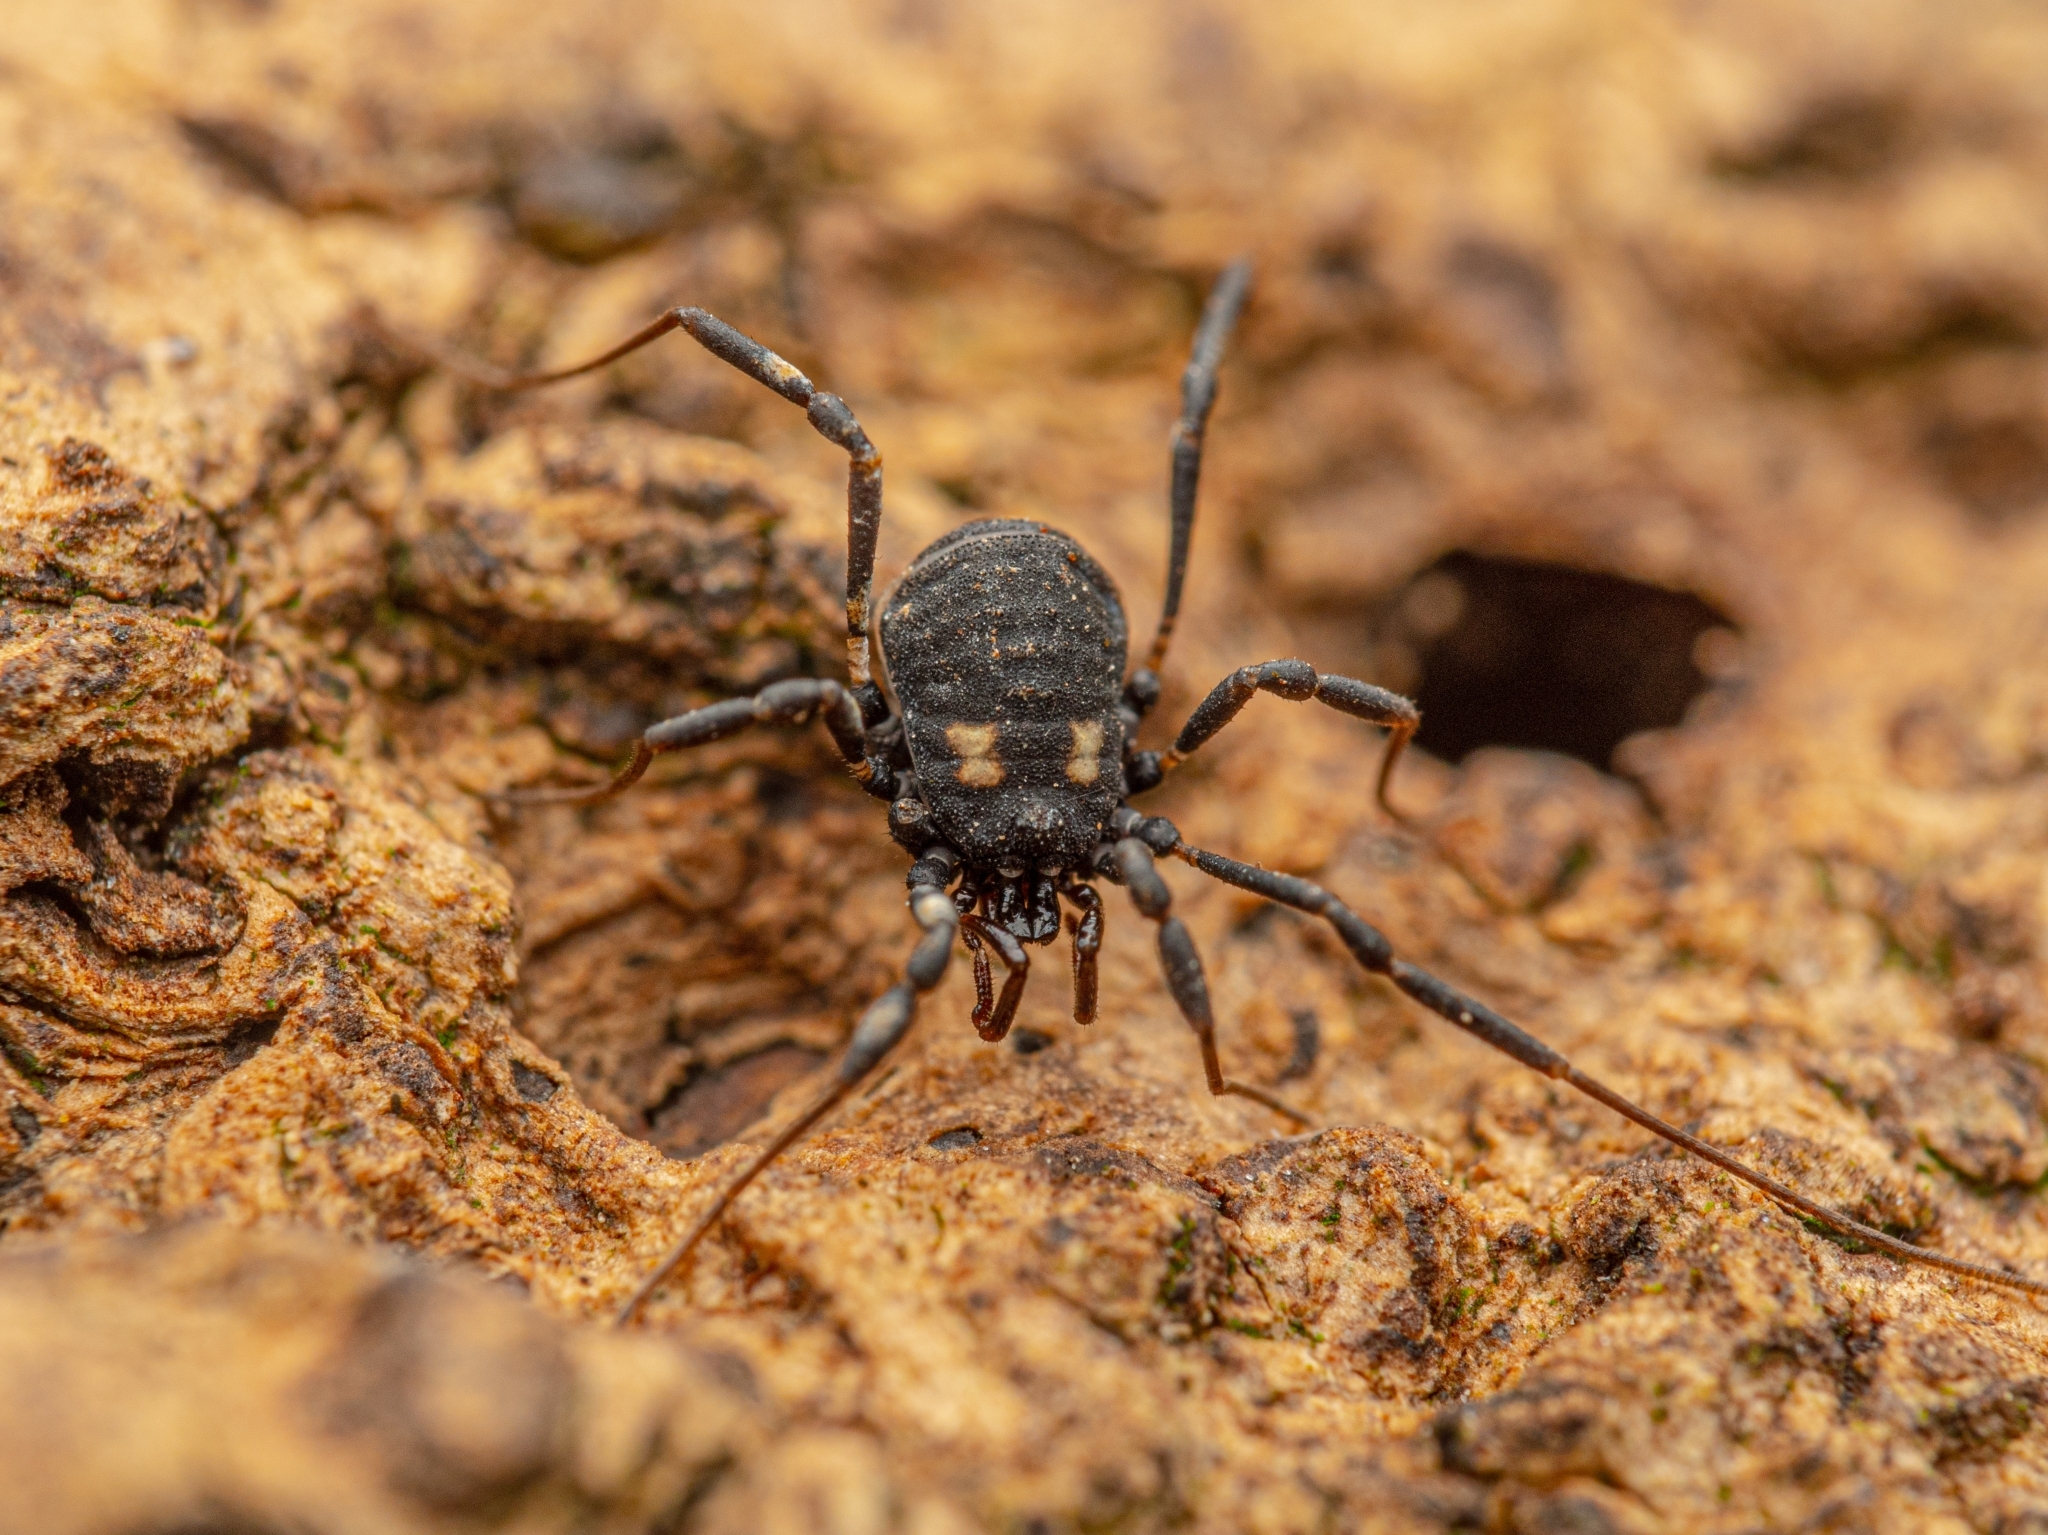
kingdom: Animalia
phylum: Arthropoda
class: Arachnida
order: Opiliones
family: Nemastomatidae
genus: Nemastoma
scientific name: Nemastoma bimaculatum
